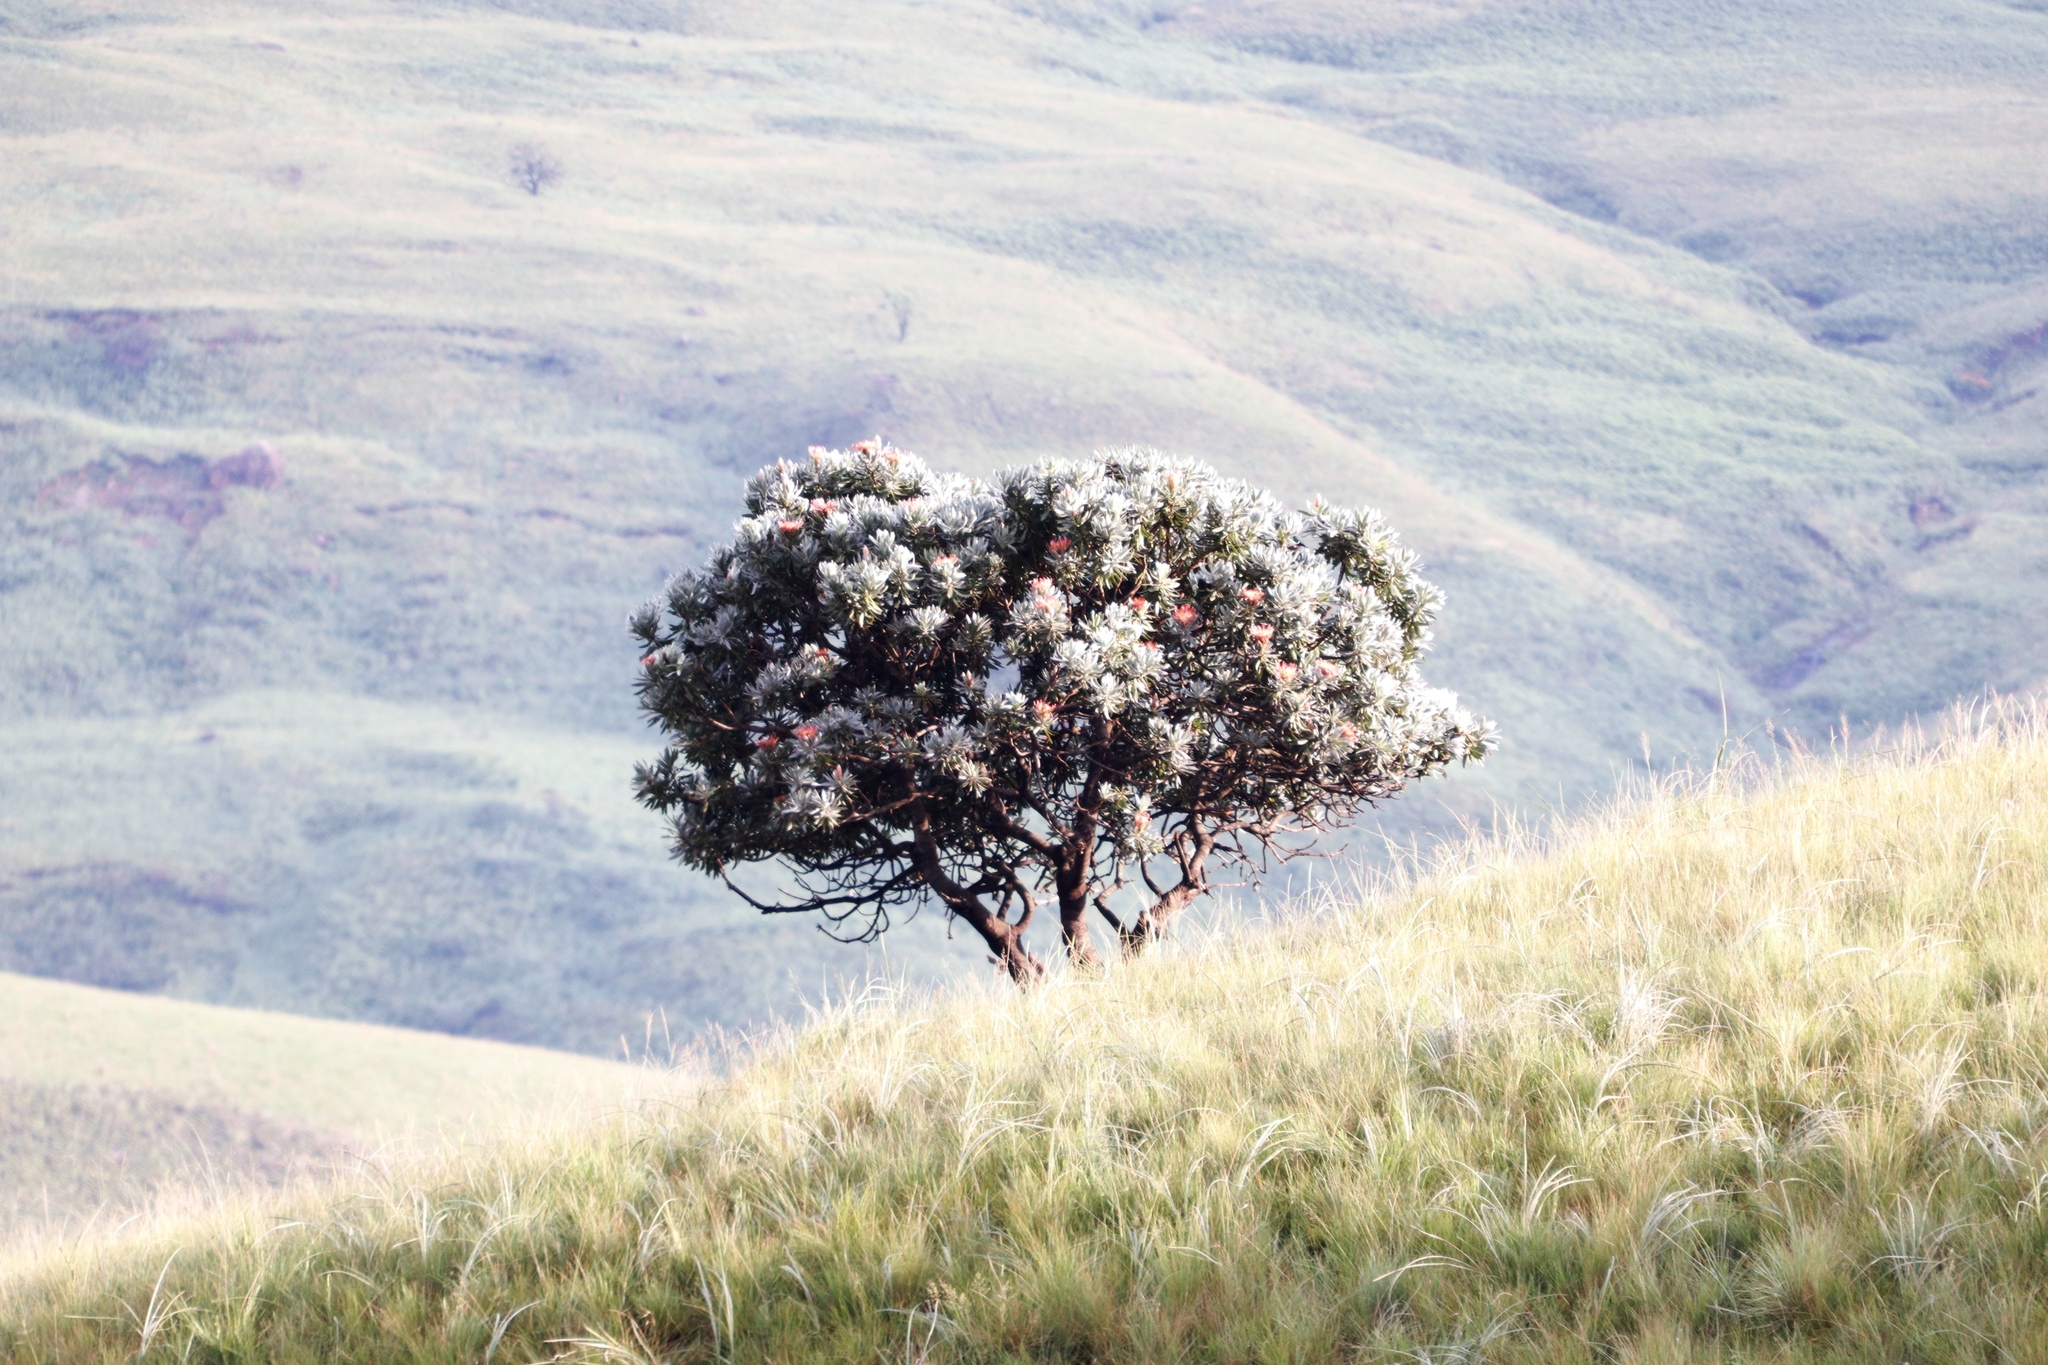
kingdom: Plantae
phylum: Tracheophyta
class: Magnoliopsida
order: Proteales
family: Proteaceae
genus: Protea
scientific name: Protea roupelliae
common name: Silver sugarbush
